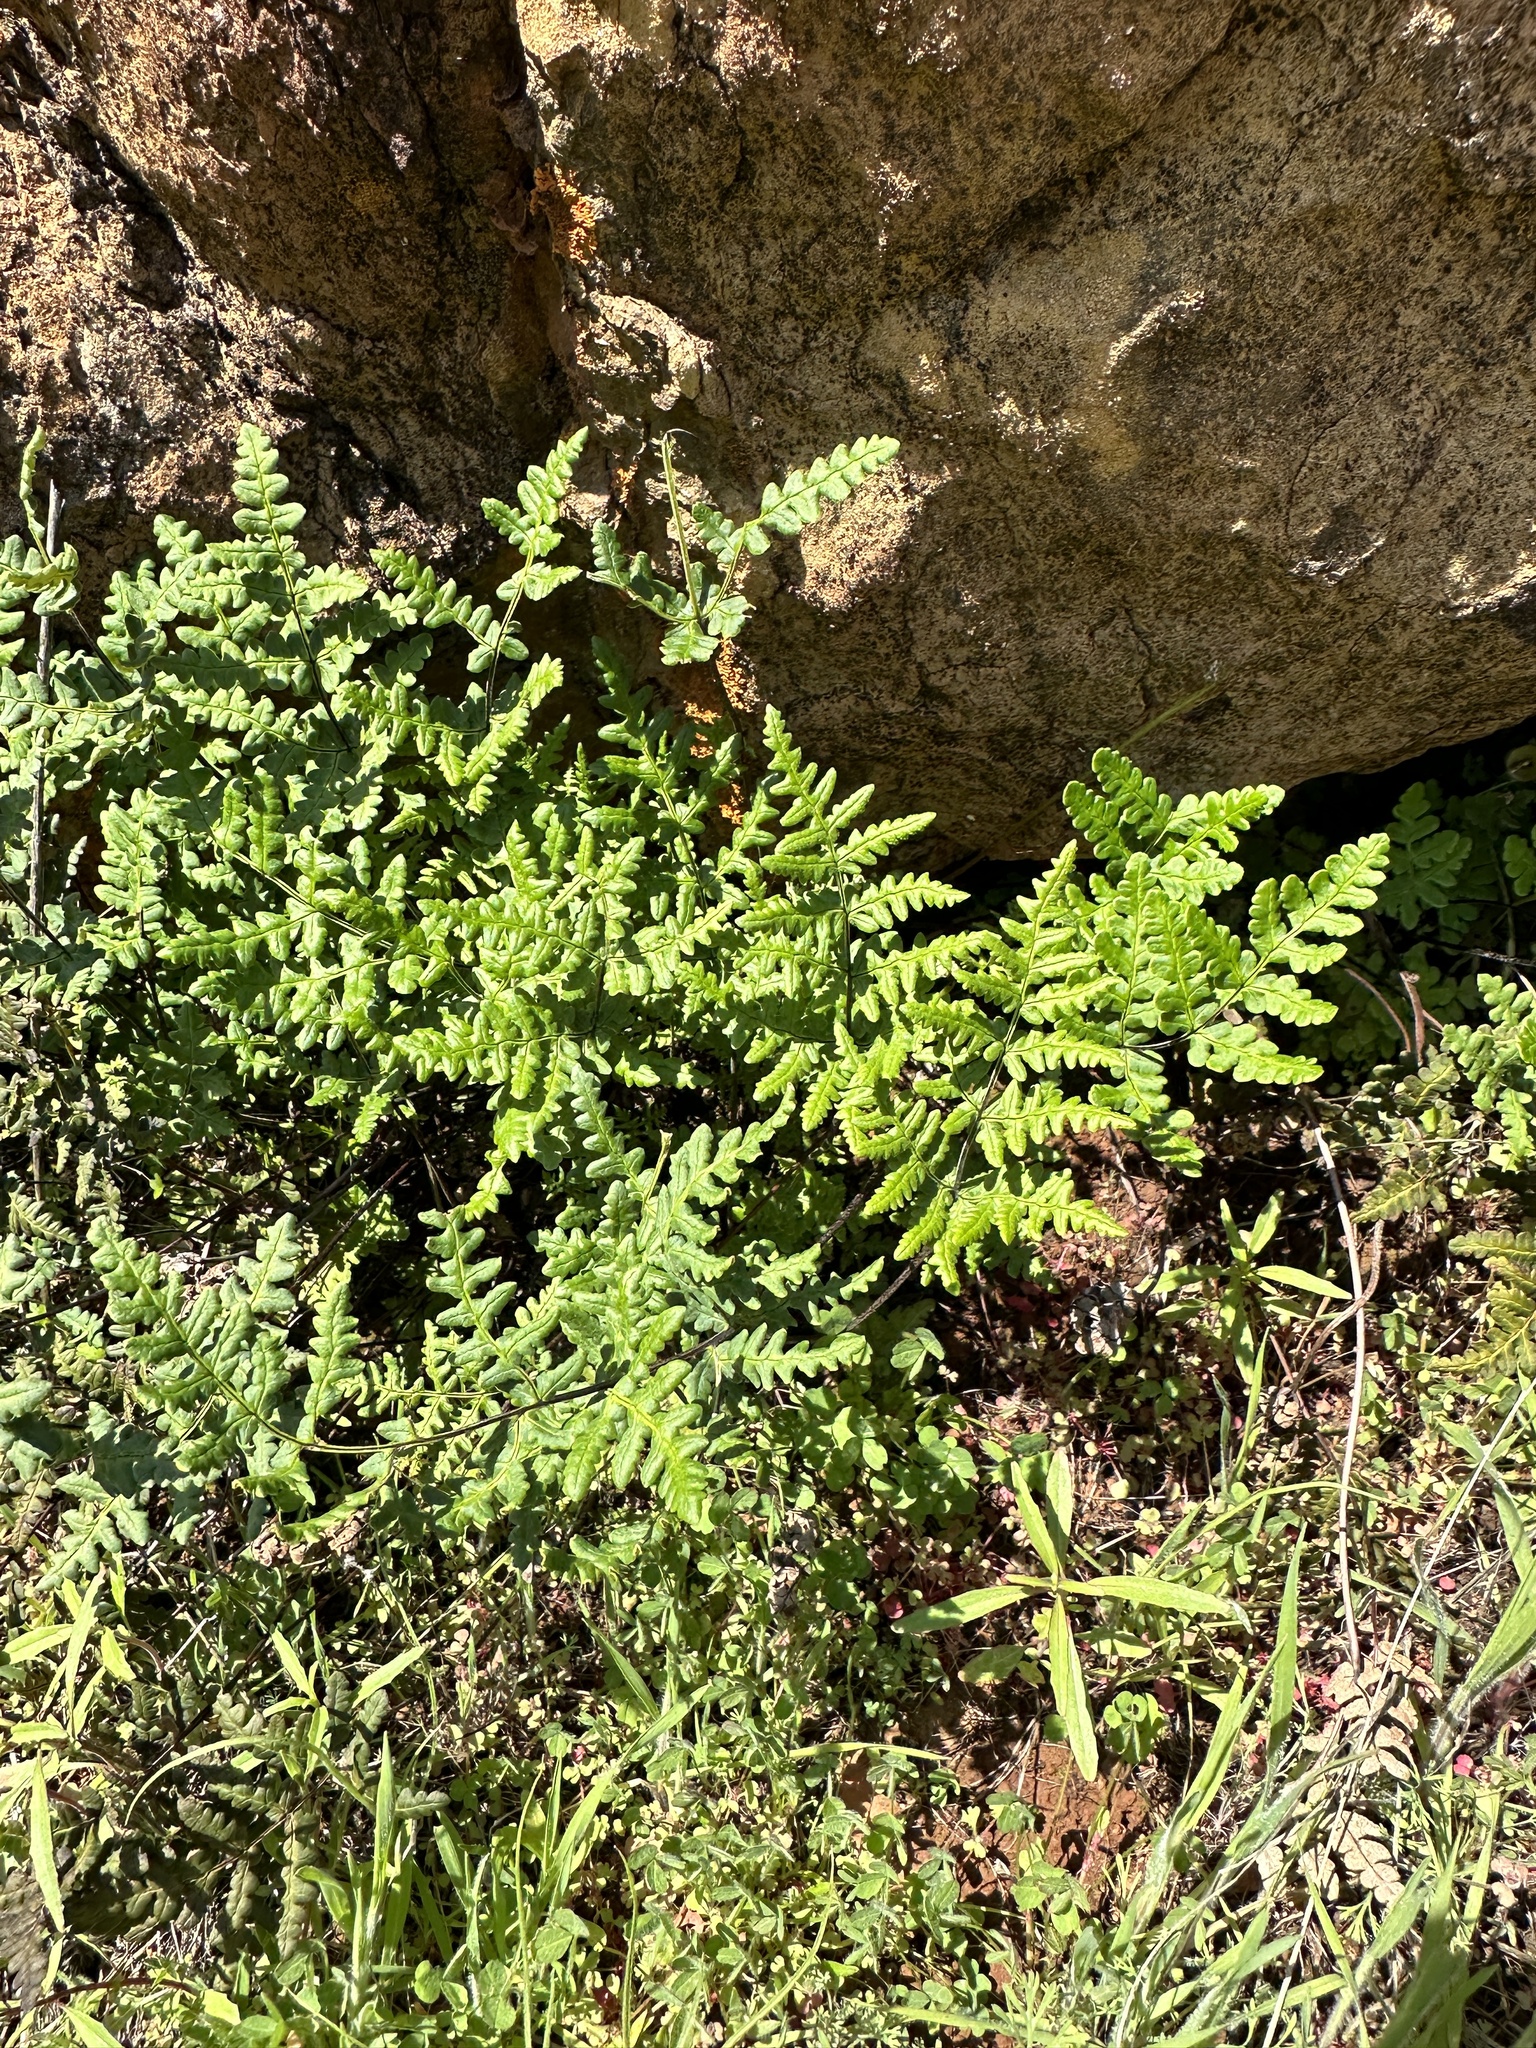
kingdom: Plantae
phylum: Tracheophyta
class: Polypodiopsida
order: Polypodiales
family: Pteridaceae
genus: Pentagramma
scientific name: Pentagramma triangularis
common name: Gold fern
